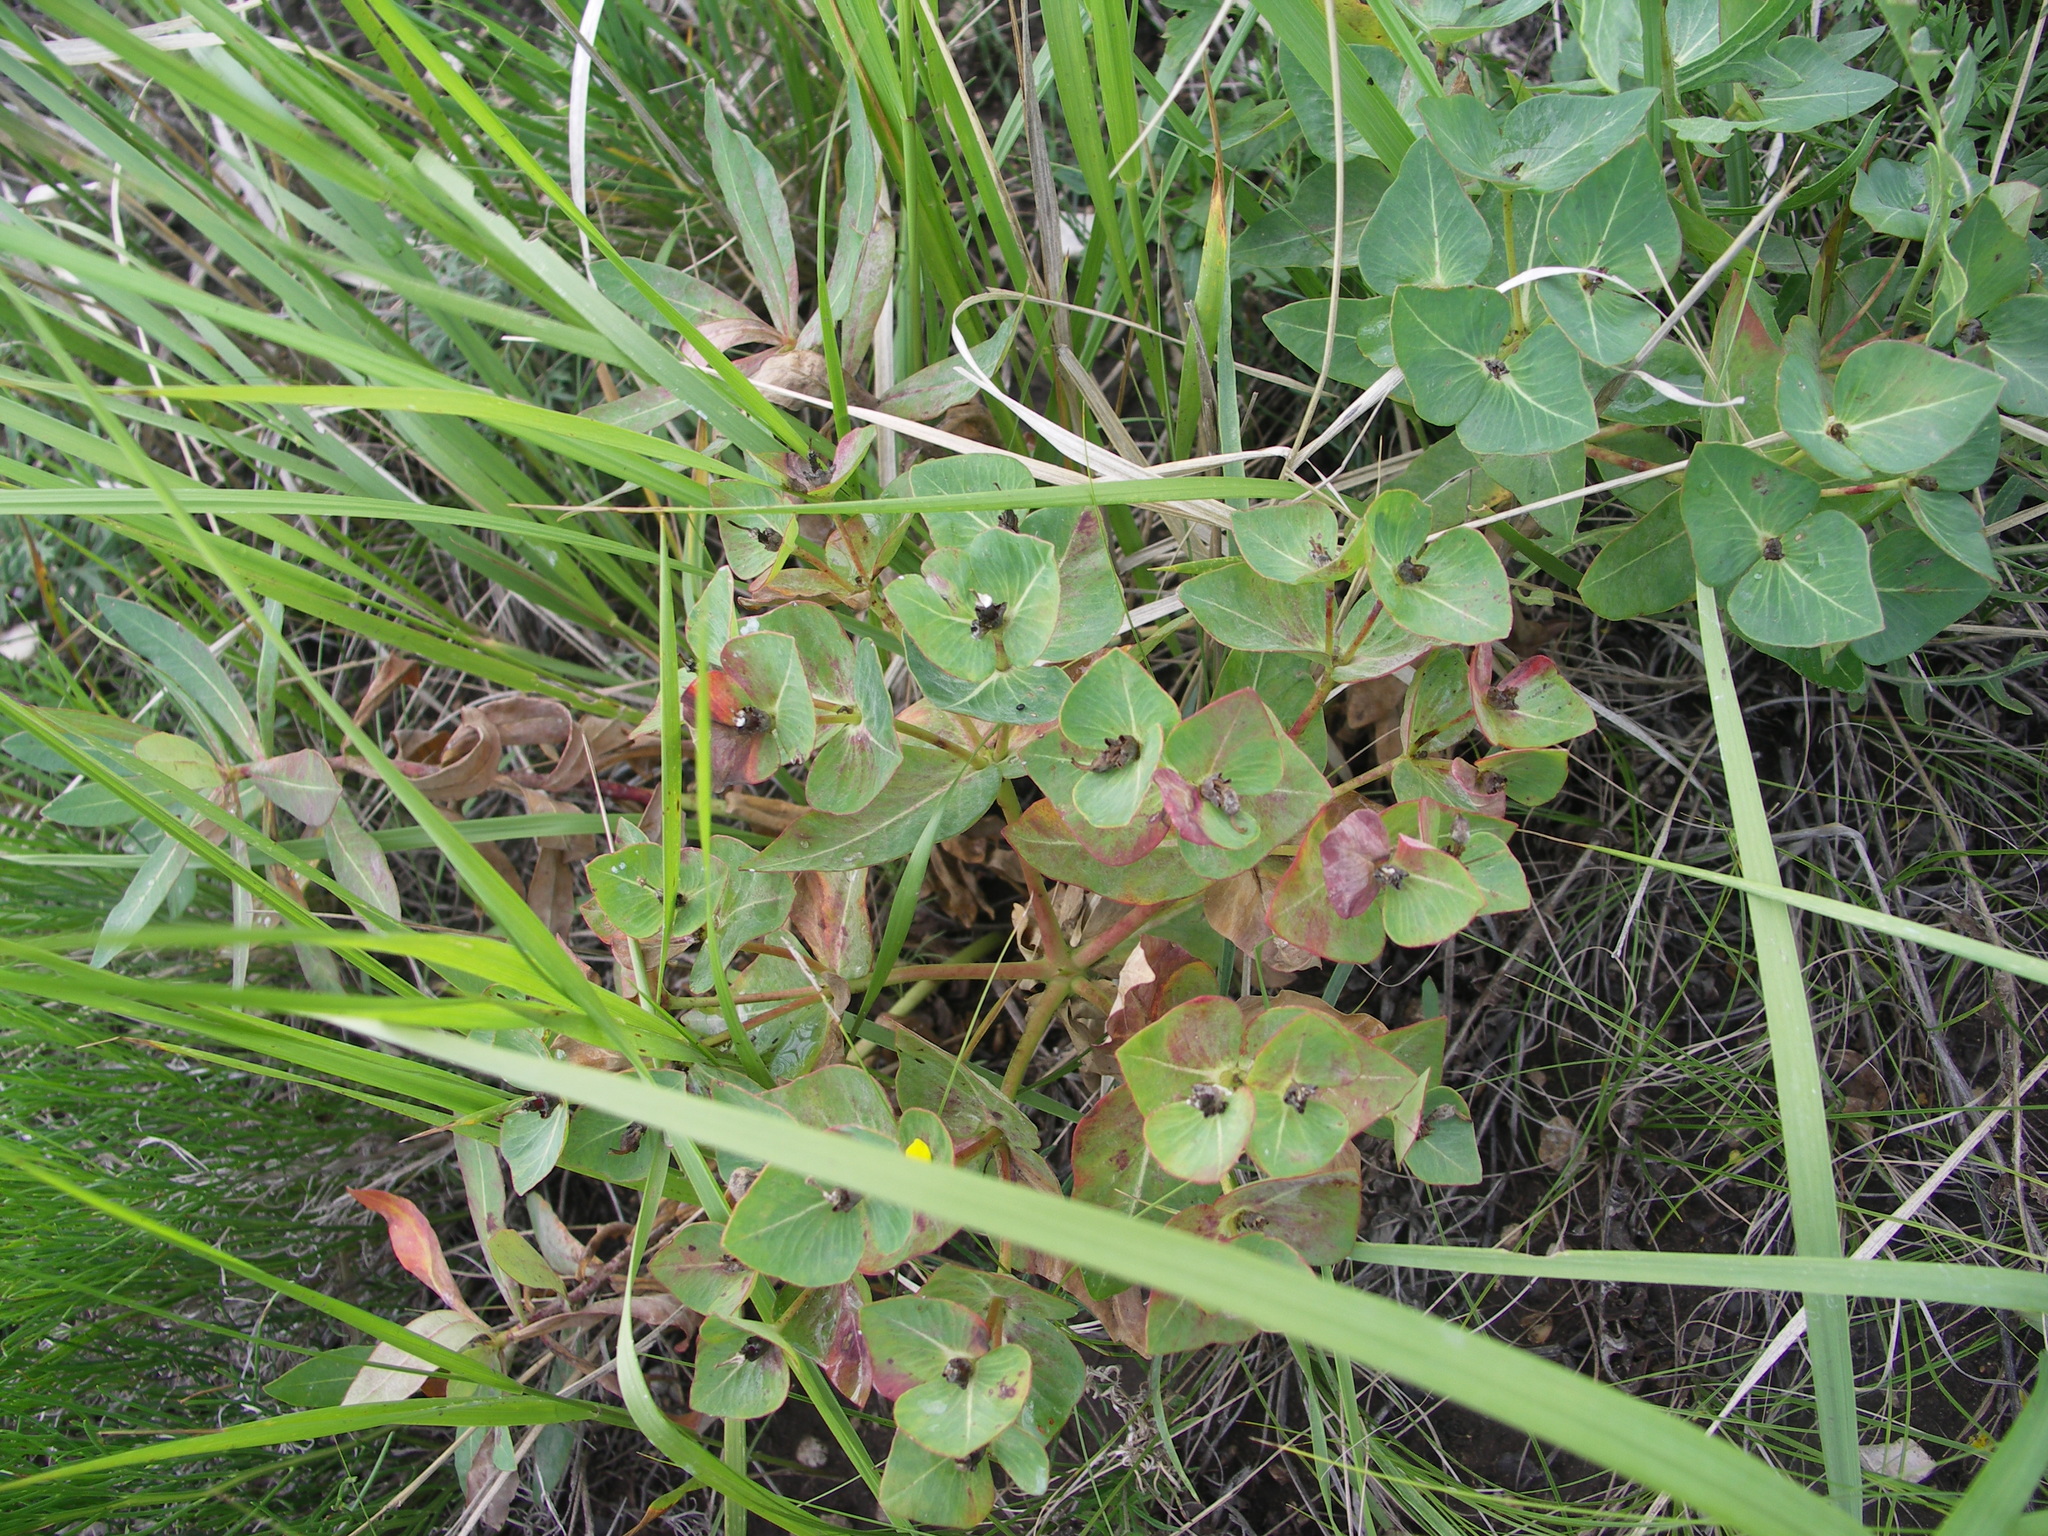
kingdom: Plantae
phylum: Tracheophyta
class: Magnoliopsida
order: Malpighiales
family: Euphorbiaceae
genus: Euphorbia
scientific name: Euphorbia fischeriana
